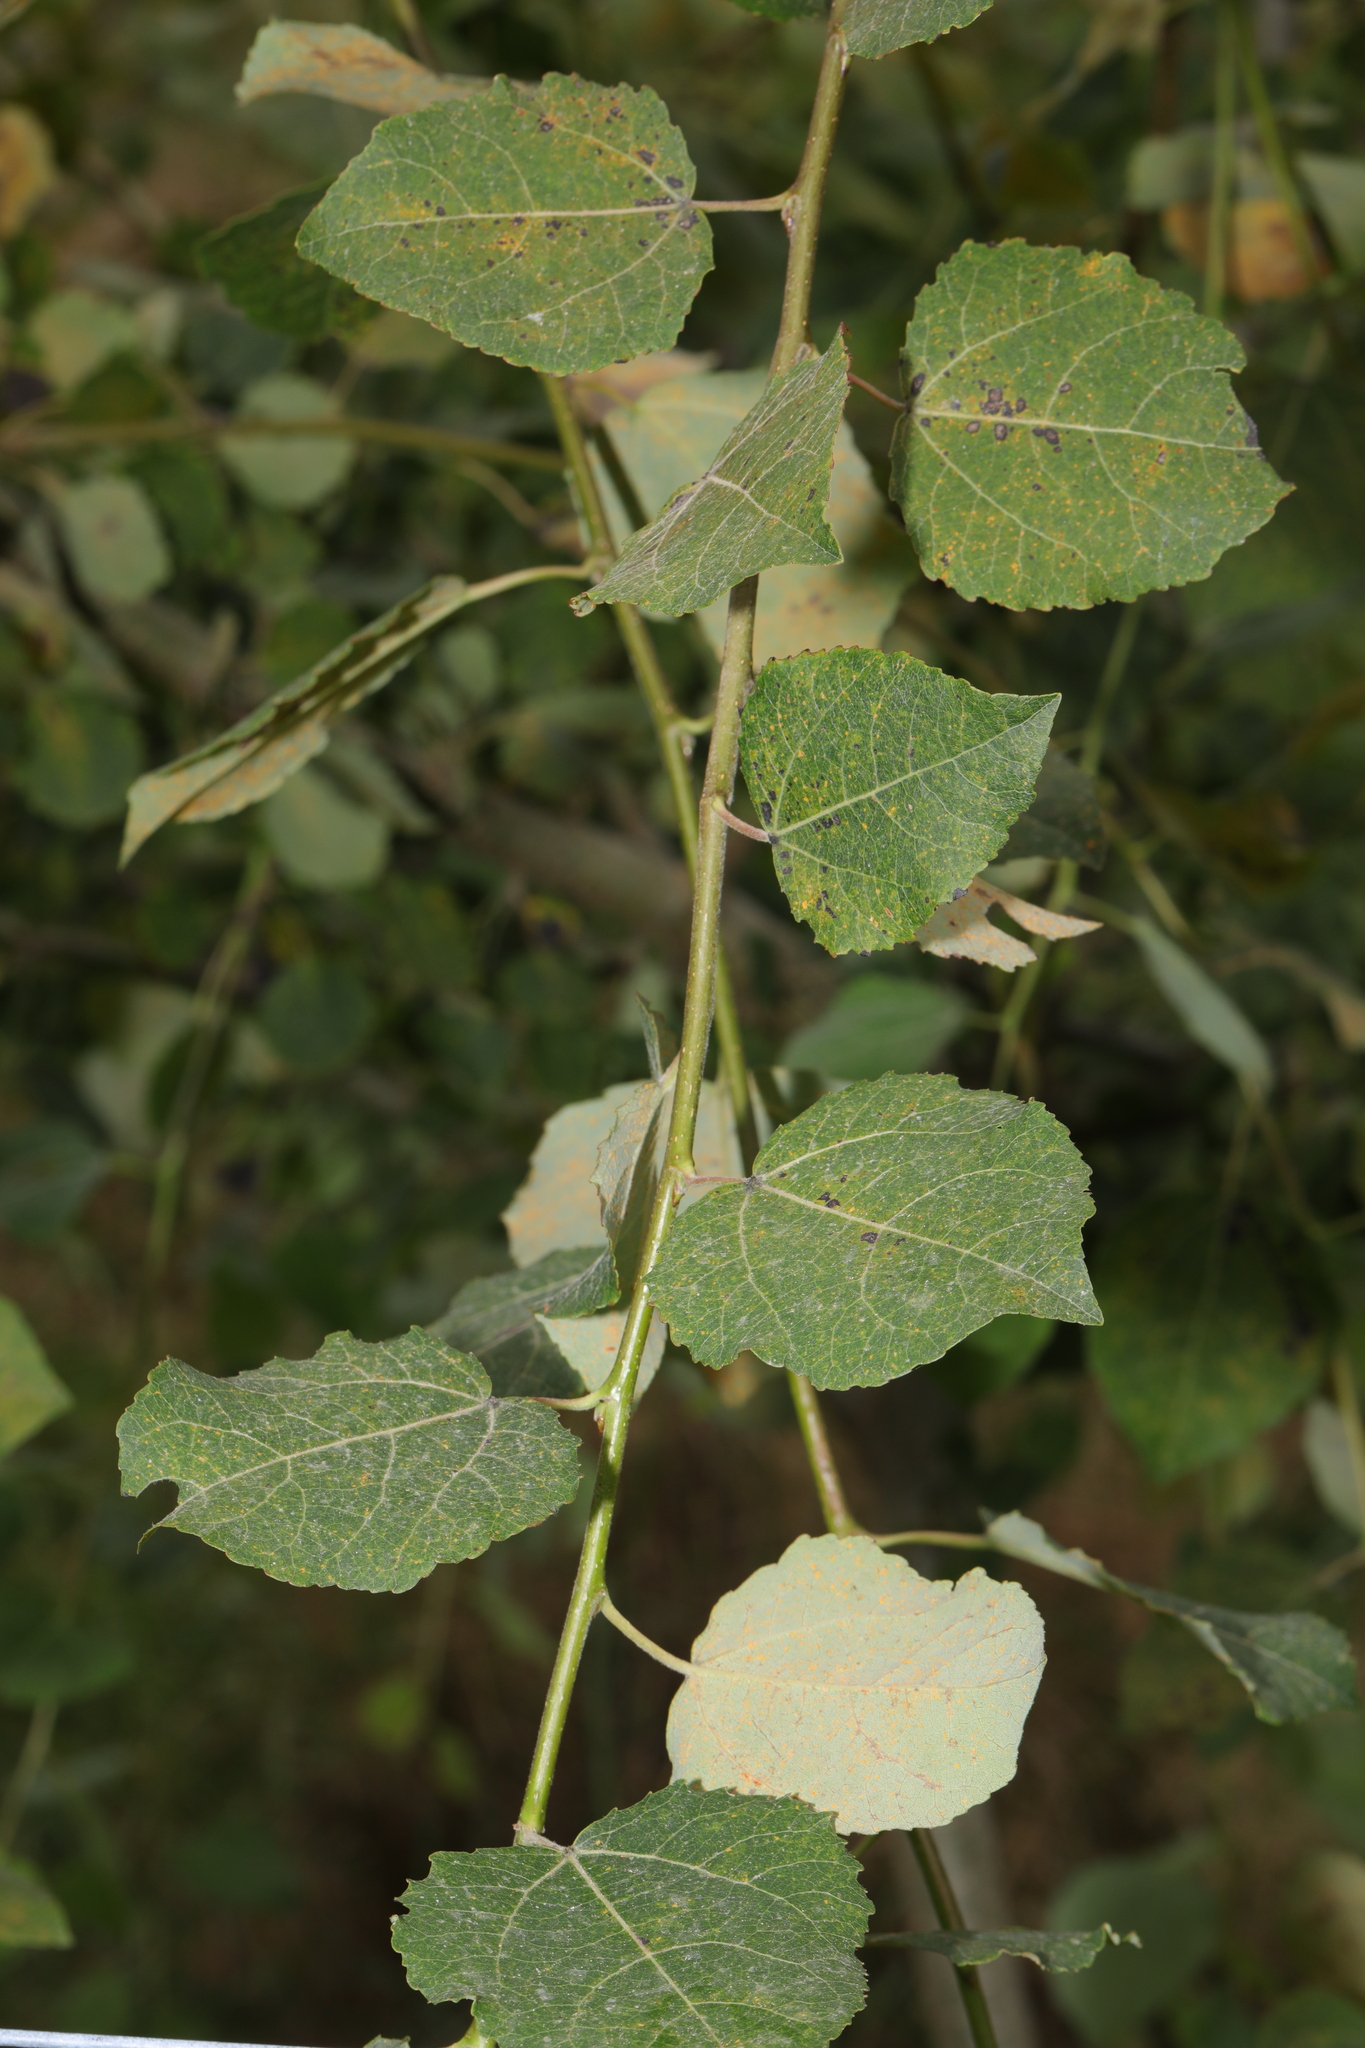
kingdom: Plantae
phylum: Tracheophyta
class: Magnoliopsida
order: Malpighiales
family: Salicaceae
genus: Populus
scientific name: Populus tremula
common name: European aspen
